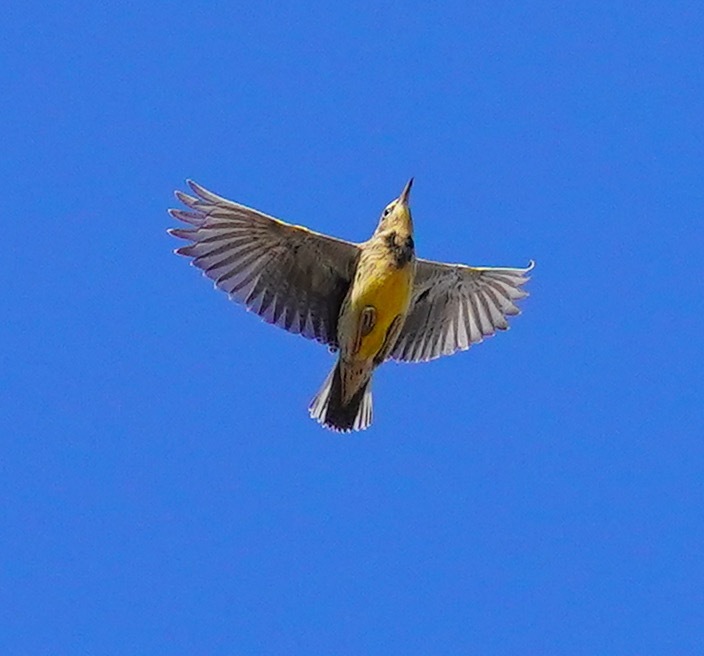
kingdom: Animalia
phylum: Chordata
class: Aves
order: Passeriformes
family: Icteridae
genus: Sturnella
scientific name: Sturnella neglecta
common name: Western meadowlark
